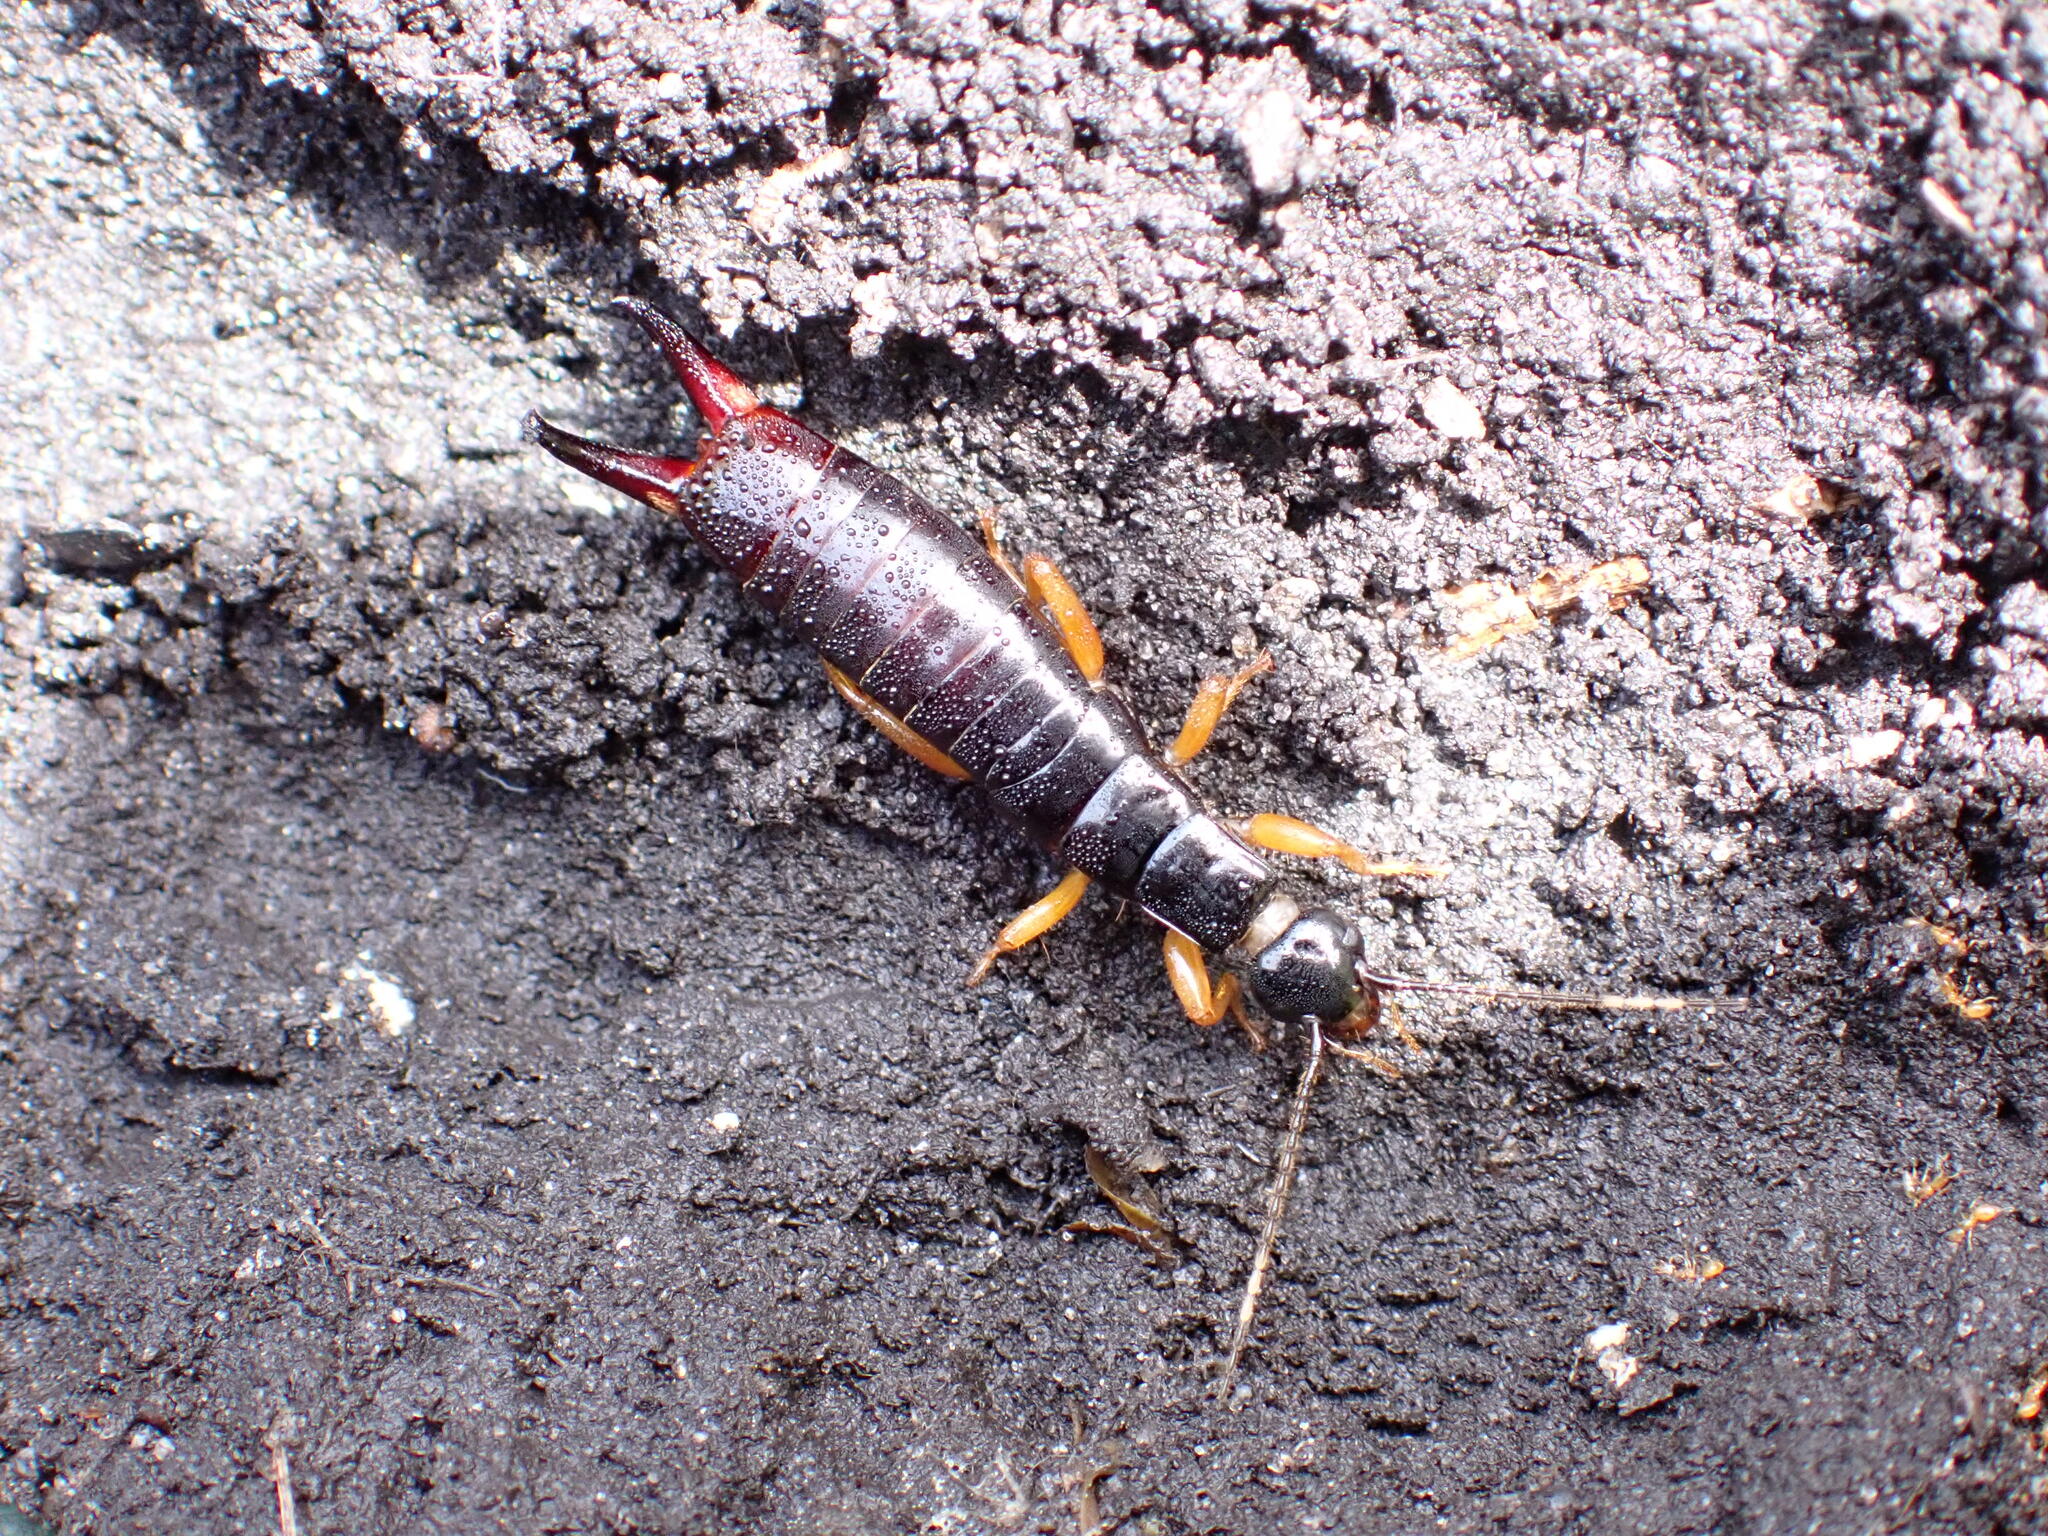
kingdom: Animalia
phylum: Arthropoda
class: Insecta
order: Dermaptera
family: Anisolabididae
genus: Euborellia
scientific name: Euborellia arcanum
